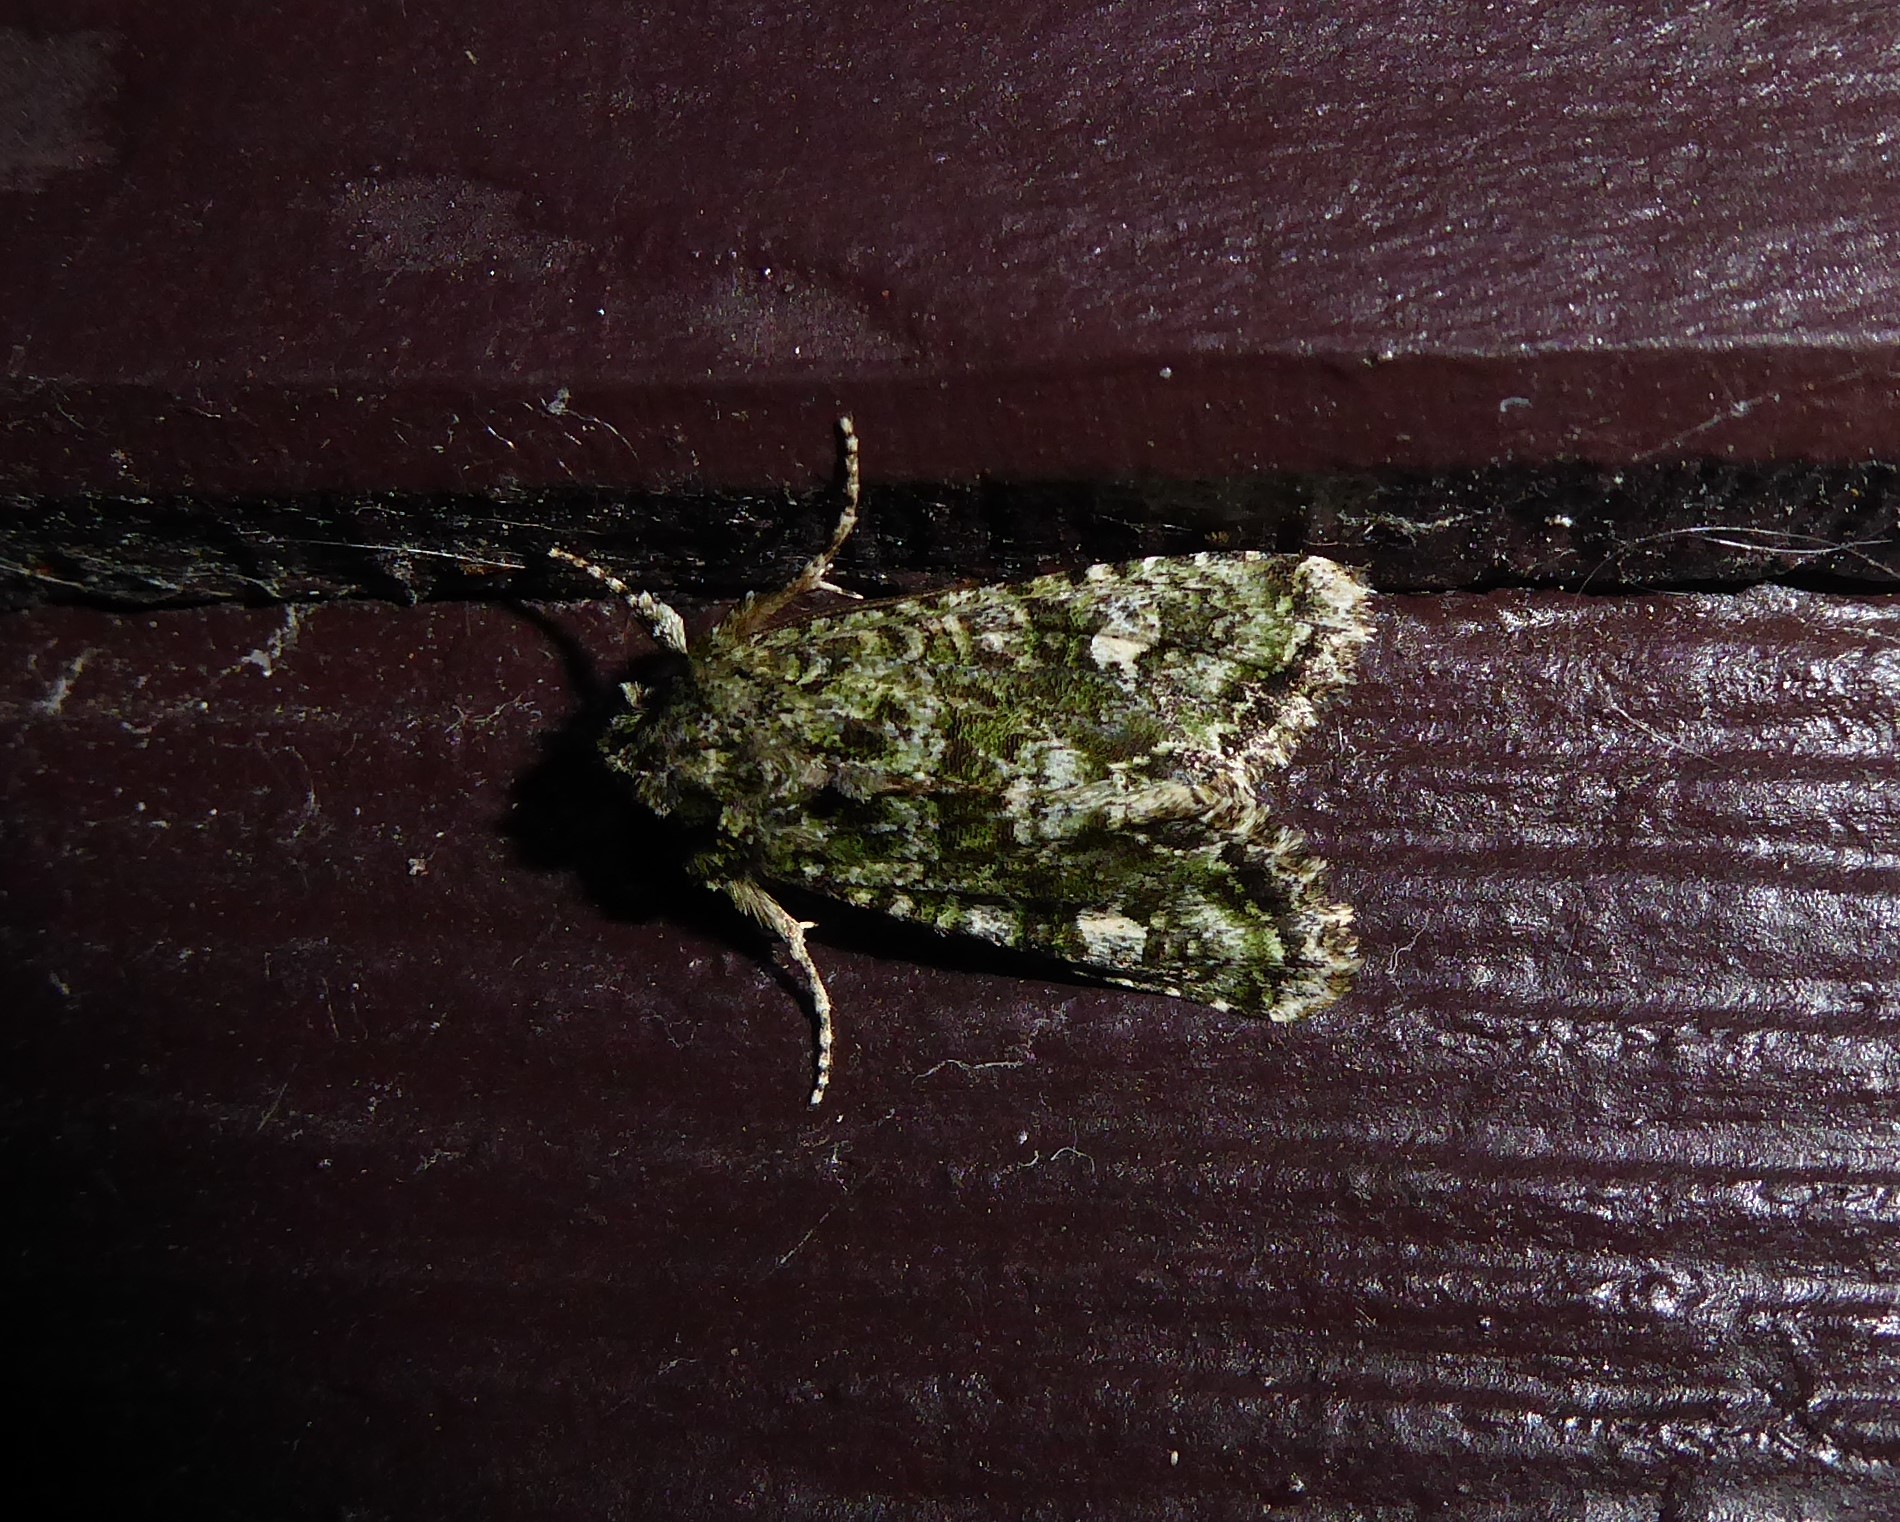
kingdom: Animalia
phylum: Arthropoda
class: Insecta
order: Lepidoptera
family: Noctuidae
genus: Ichneutica
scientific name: Ichneutica
